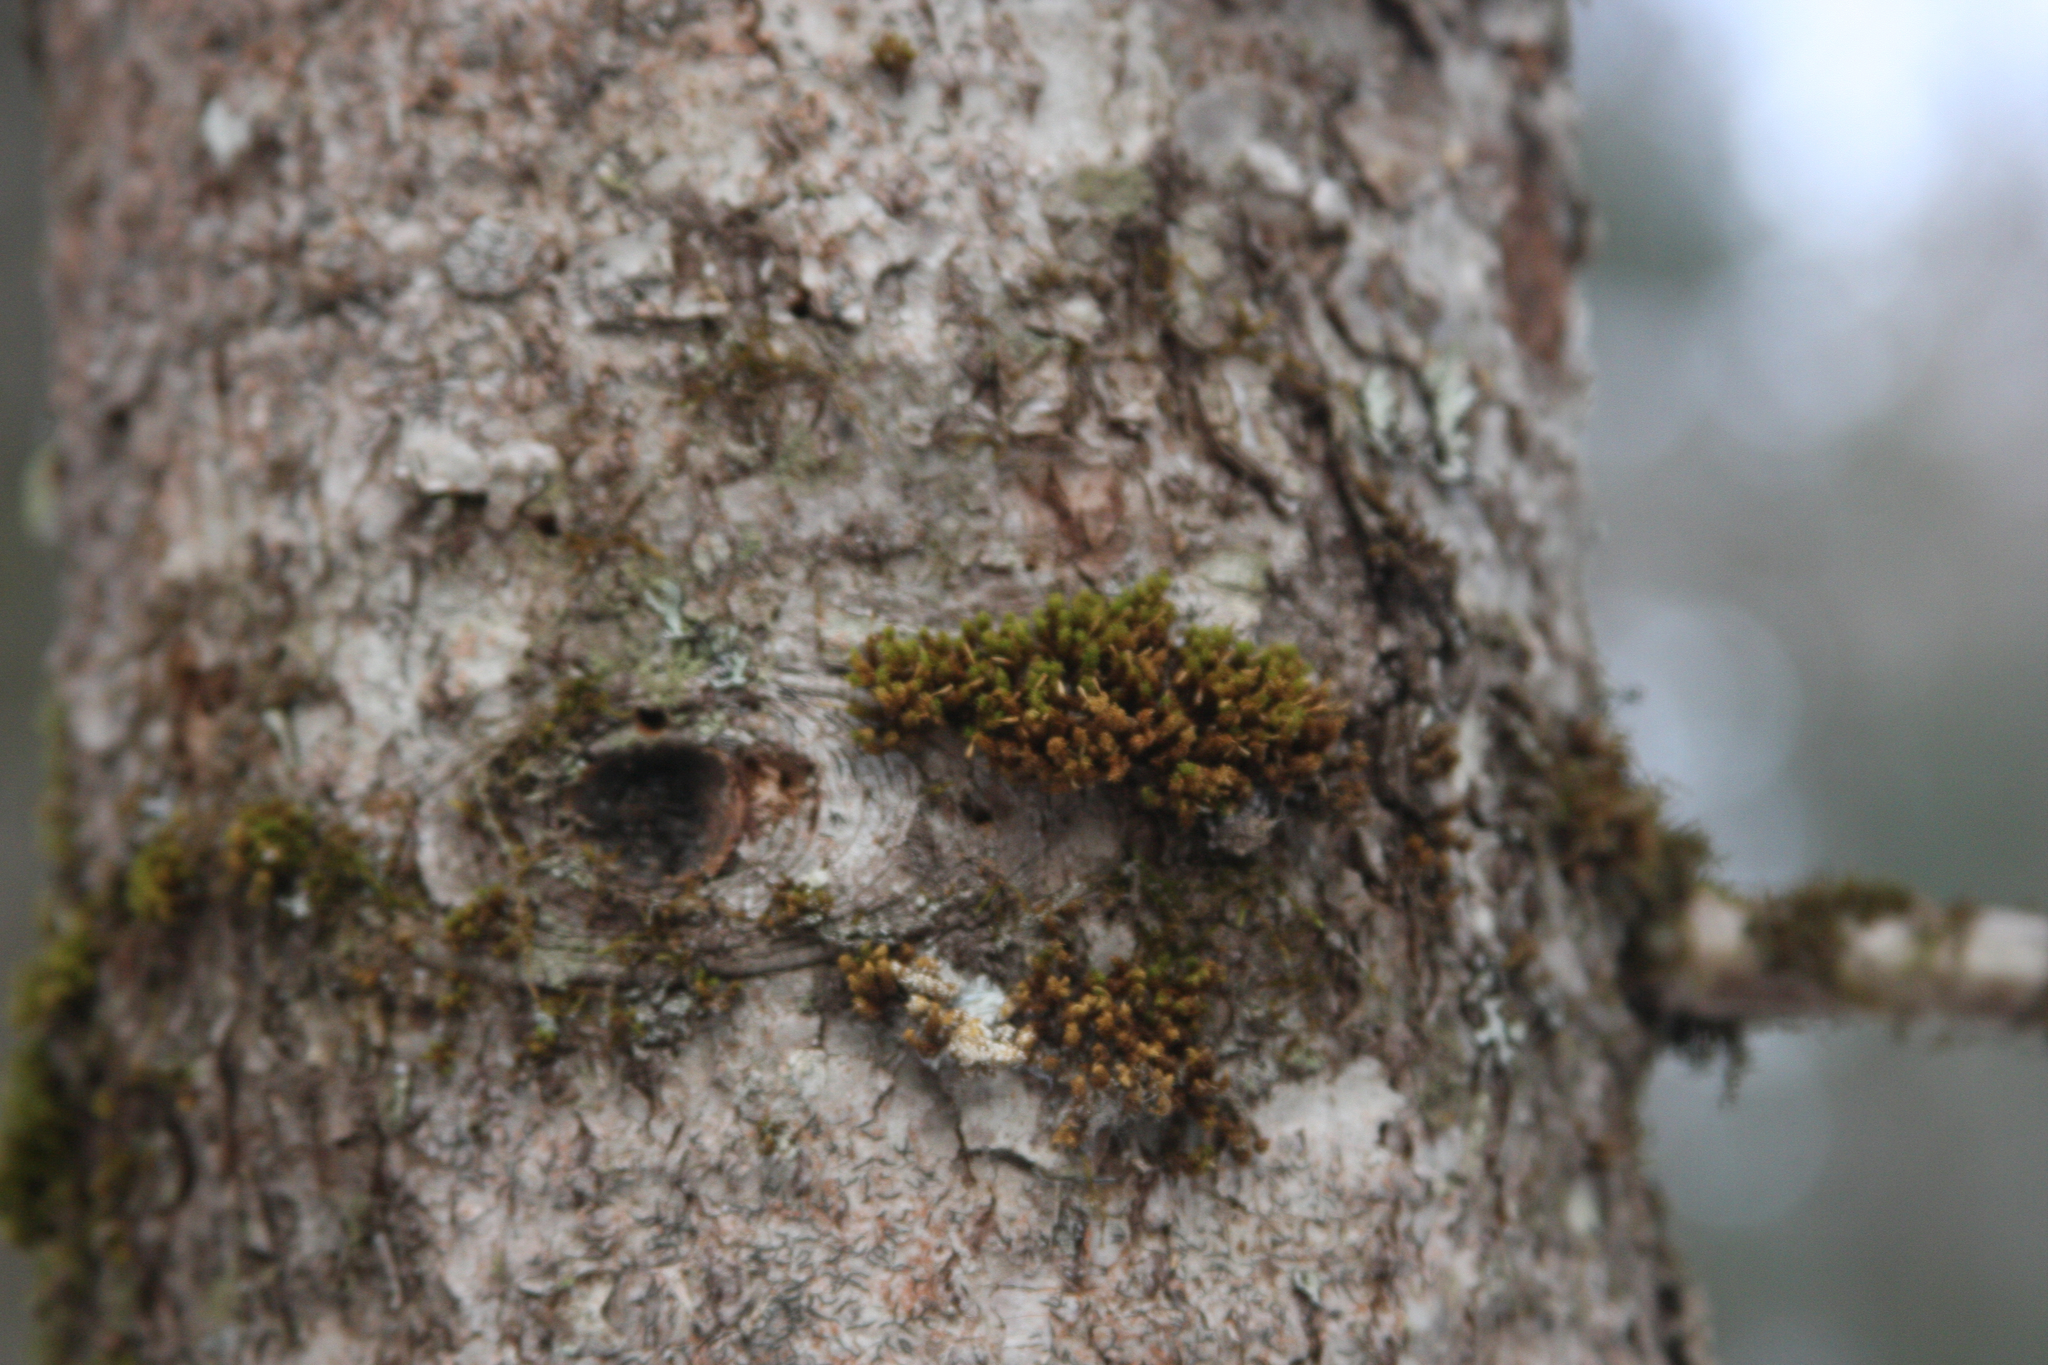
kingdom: Plantae
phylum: Bryophyta
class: Bryopsida
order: Orthotrichales
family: Orthotrichaceae
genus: Ulota
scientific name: Ulota crispa
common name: Crisped pincushion moss
